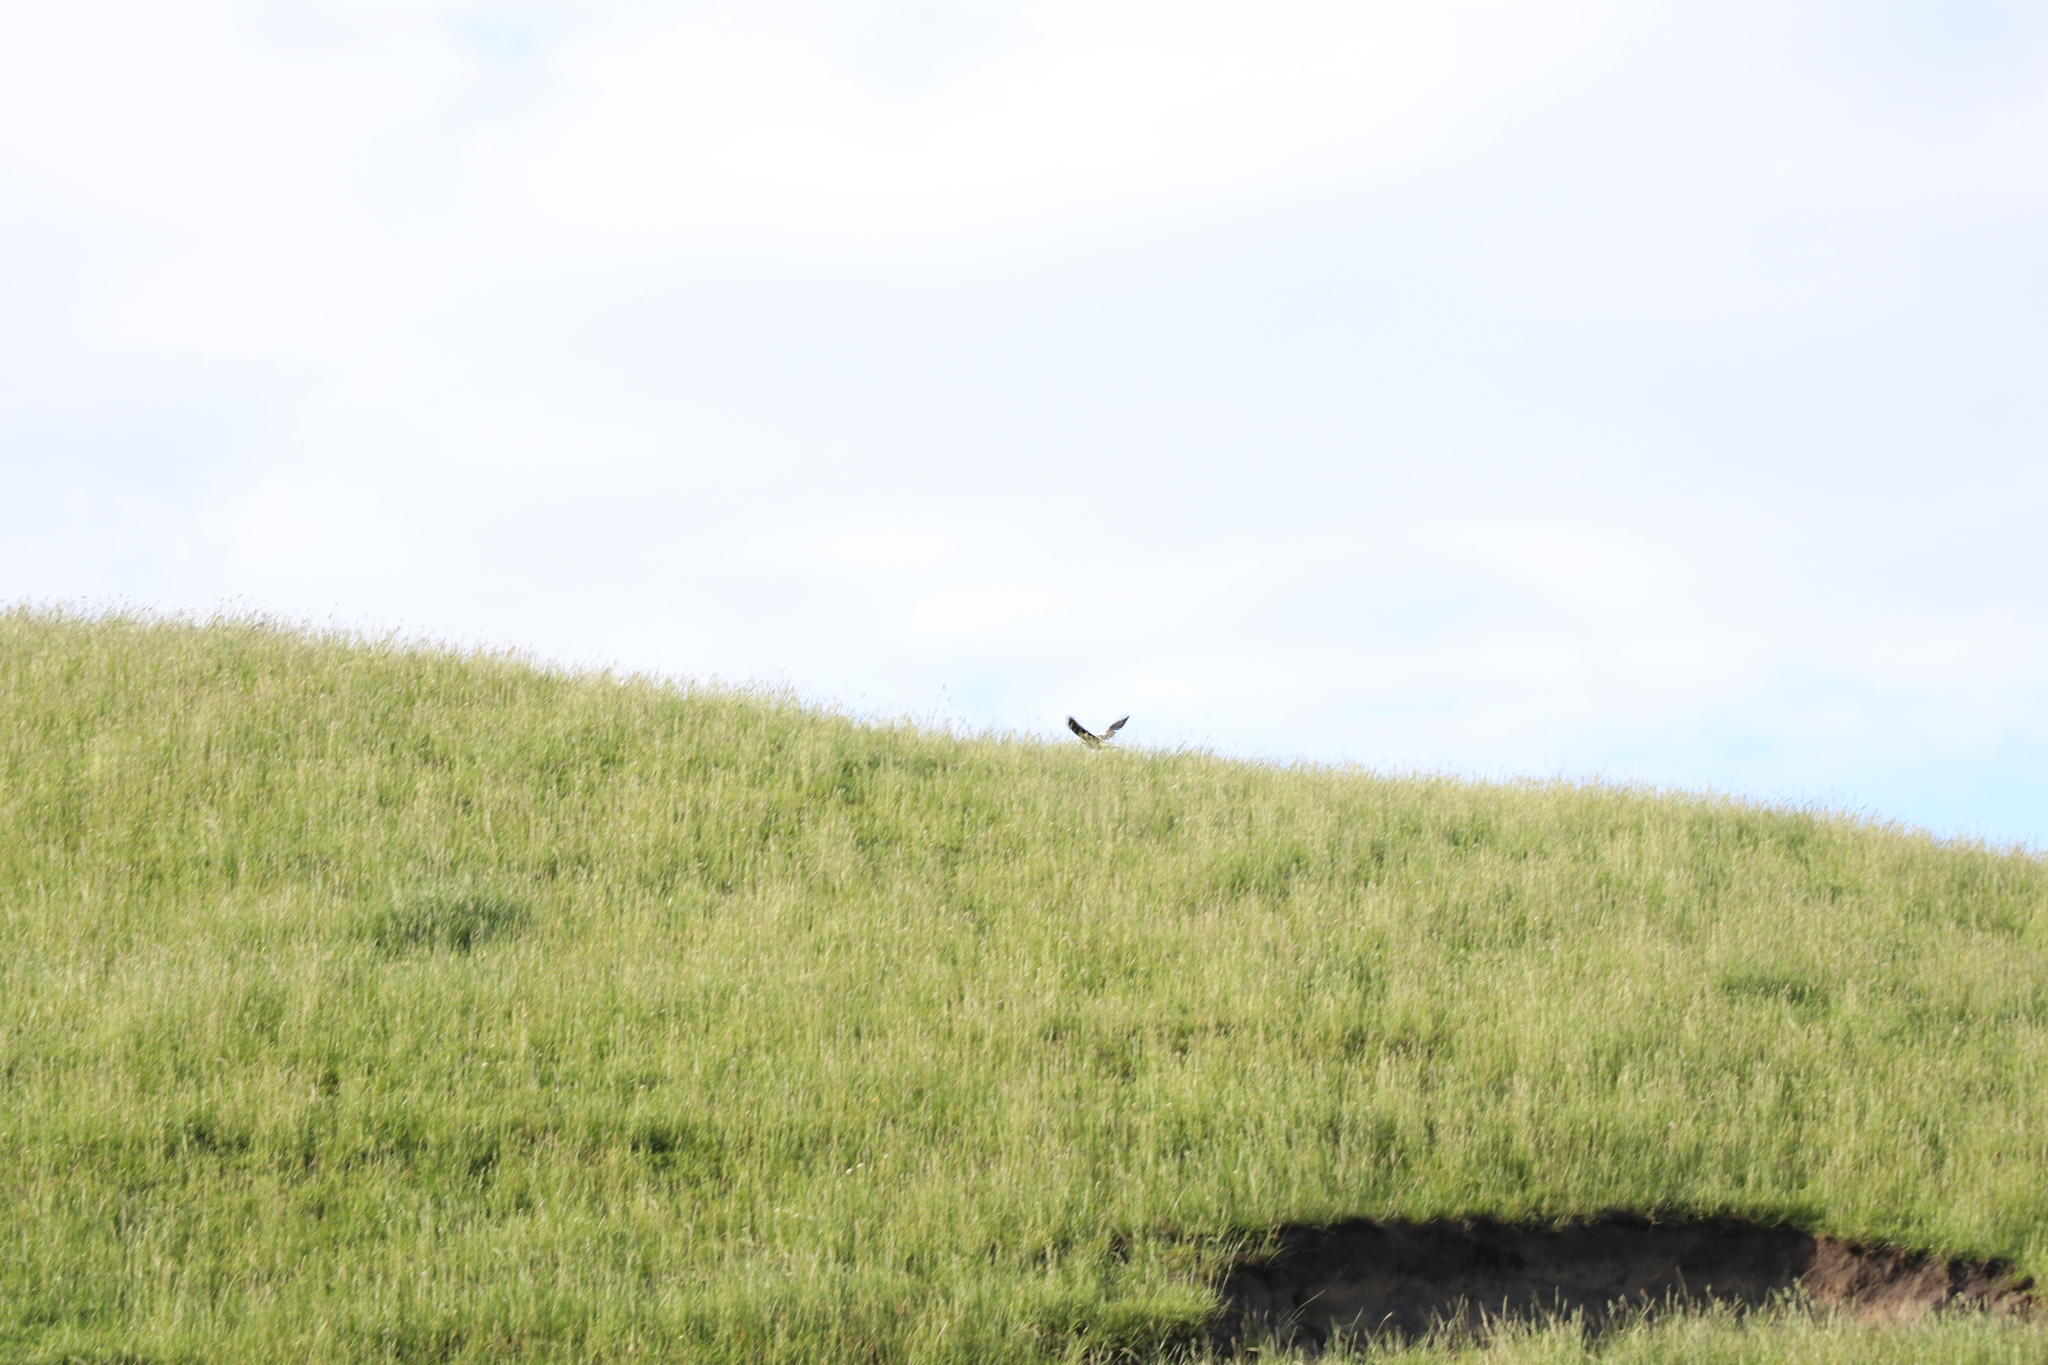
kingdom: Animalia
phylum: Chordata
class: Aves
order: Passeriformes
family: Cracticidae
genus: Gymnorhina
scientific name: Gymnorhina tibicen
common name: Australian magpie
